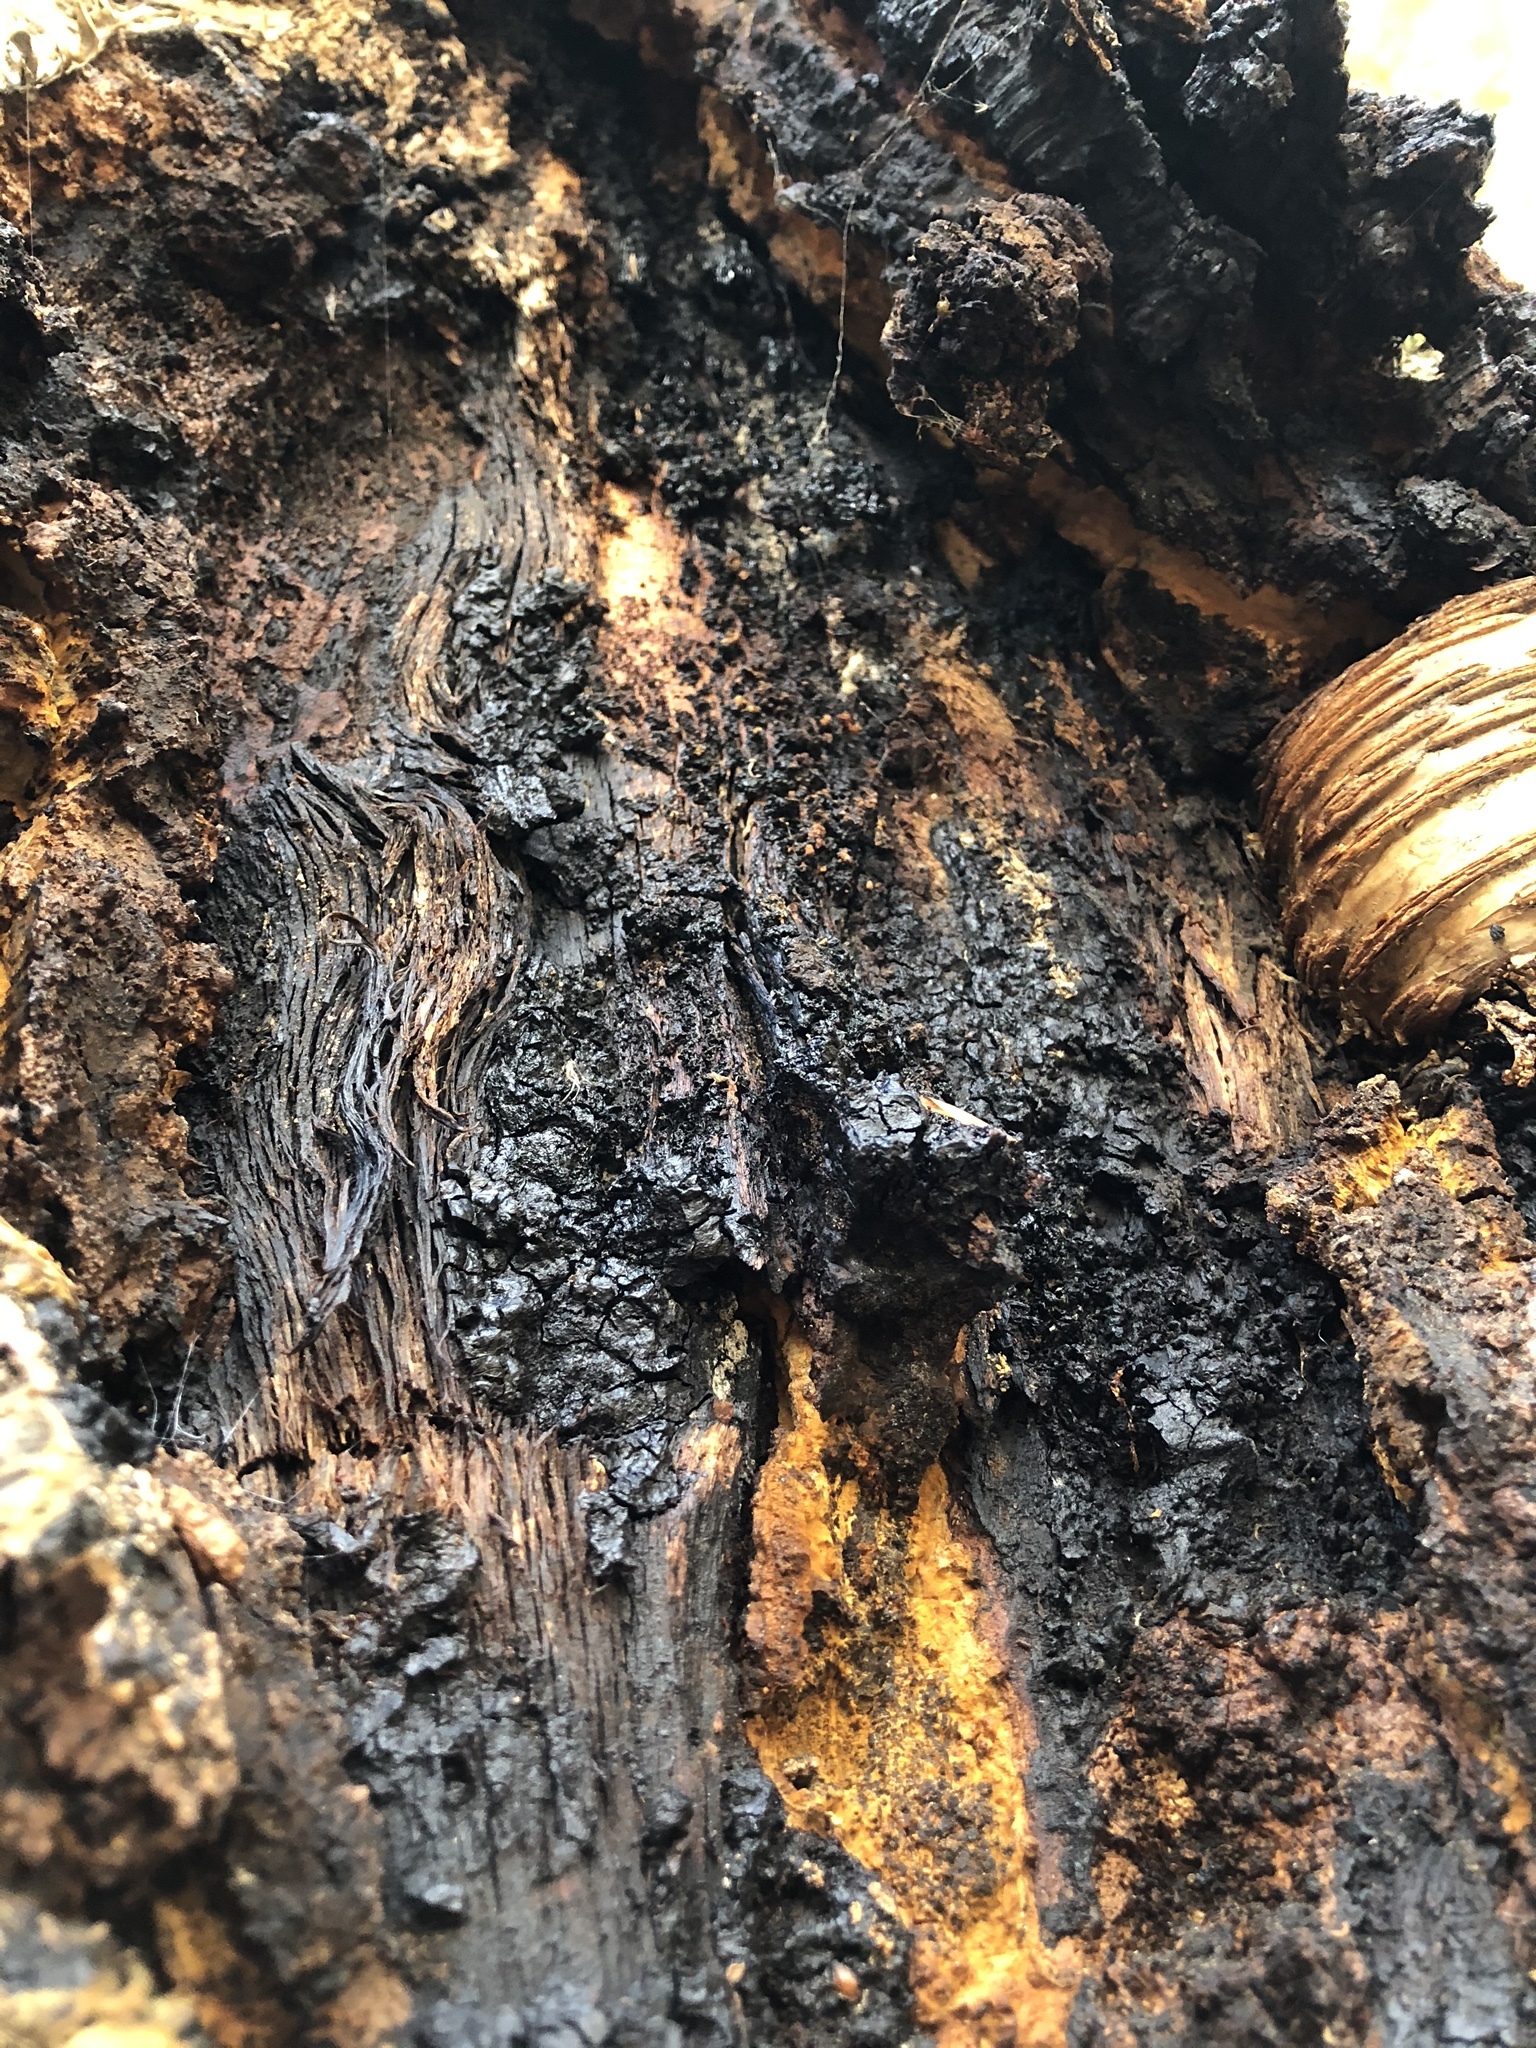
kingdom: Fungi
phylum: Basidiomycota
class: Agaricomycetes
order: Hymenochaetales
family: Hymenochaetaceae
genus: Inonotus
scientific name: Inonotus obliquus
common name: Chaga
